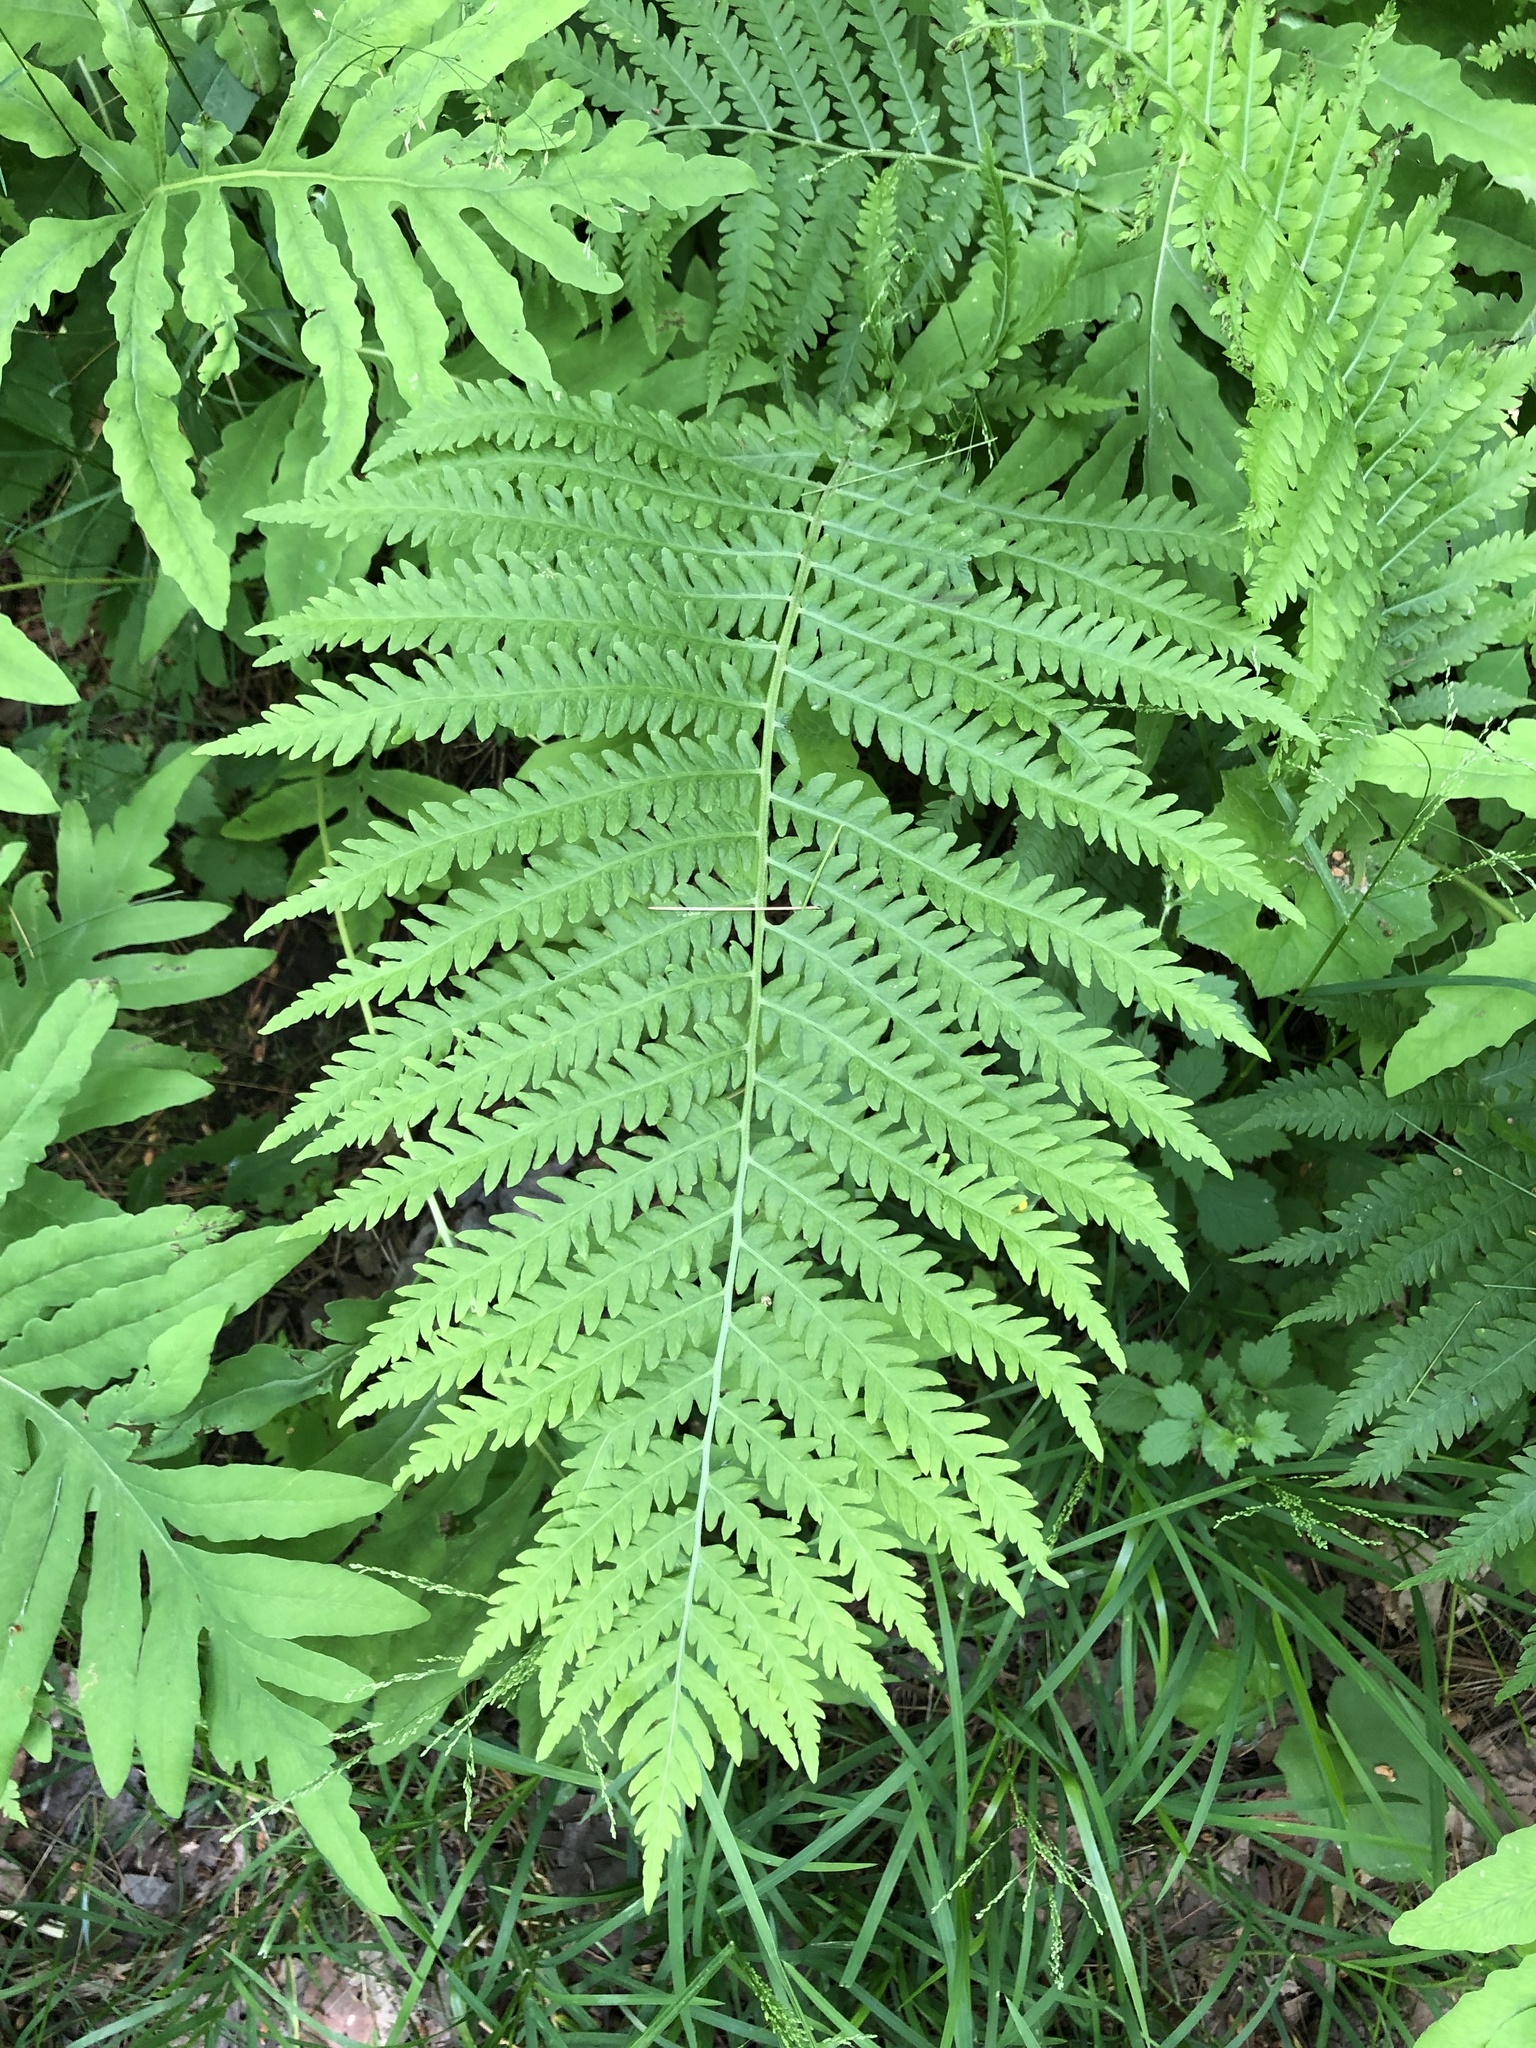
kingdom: Plantae
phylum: Tracheophyta
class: Polypodiopsida
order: Polypodiales
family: Onocleaceae
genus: Matteuccia
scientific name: Matteuccia struthiopteris
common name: Ostrich fern
